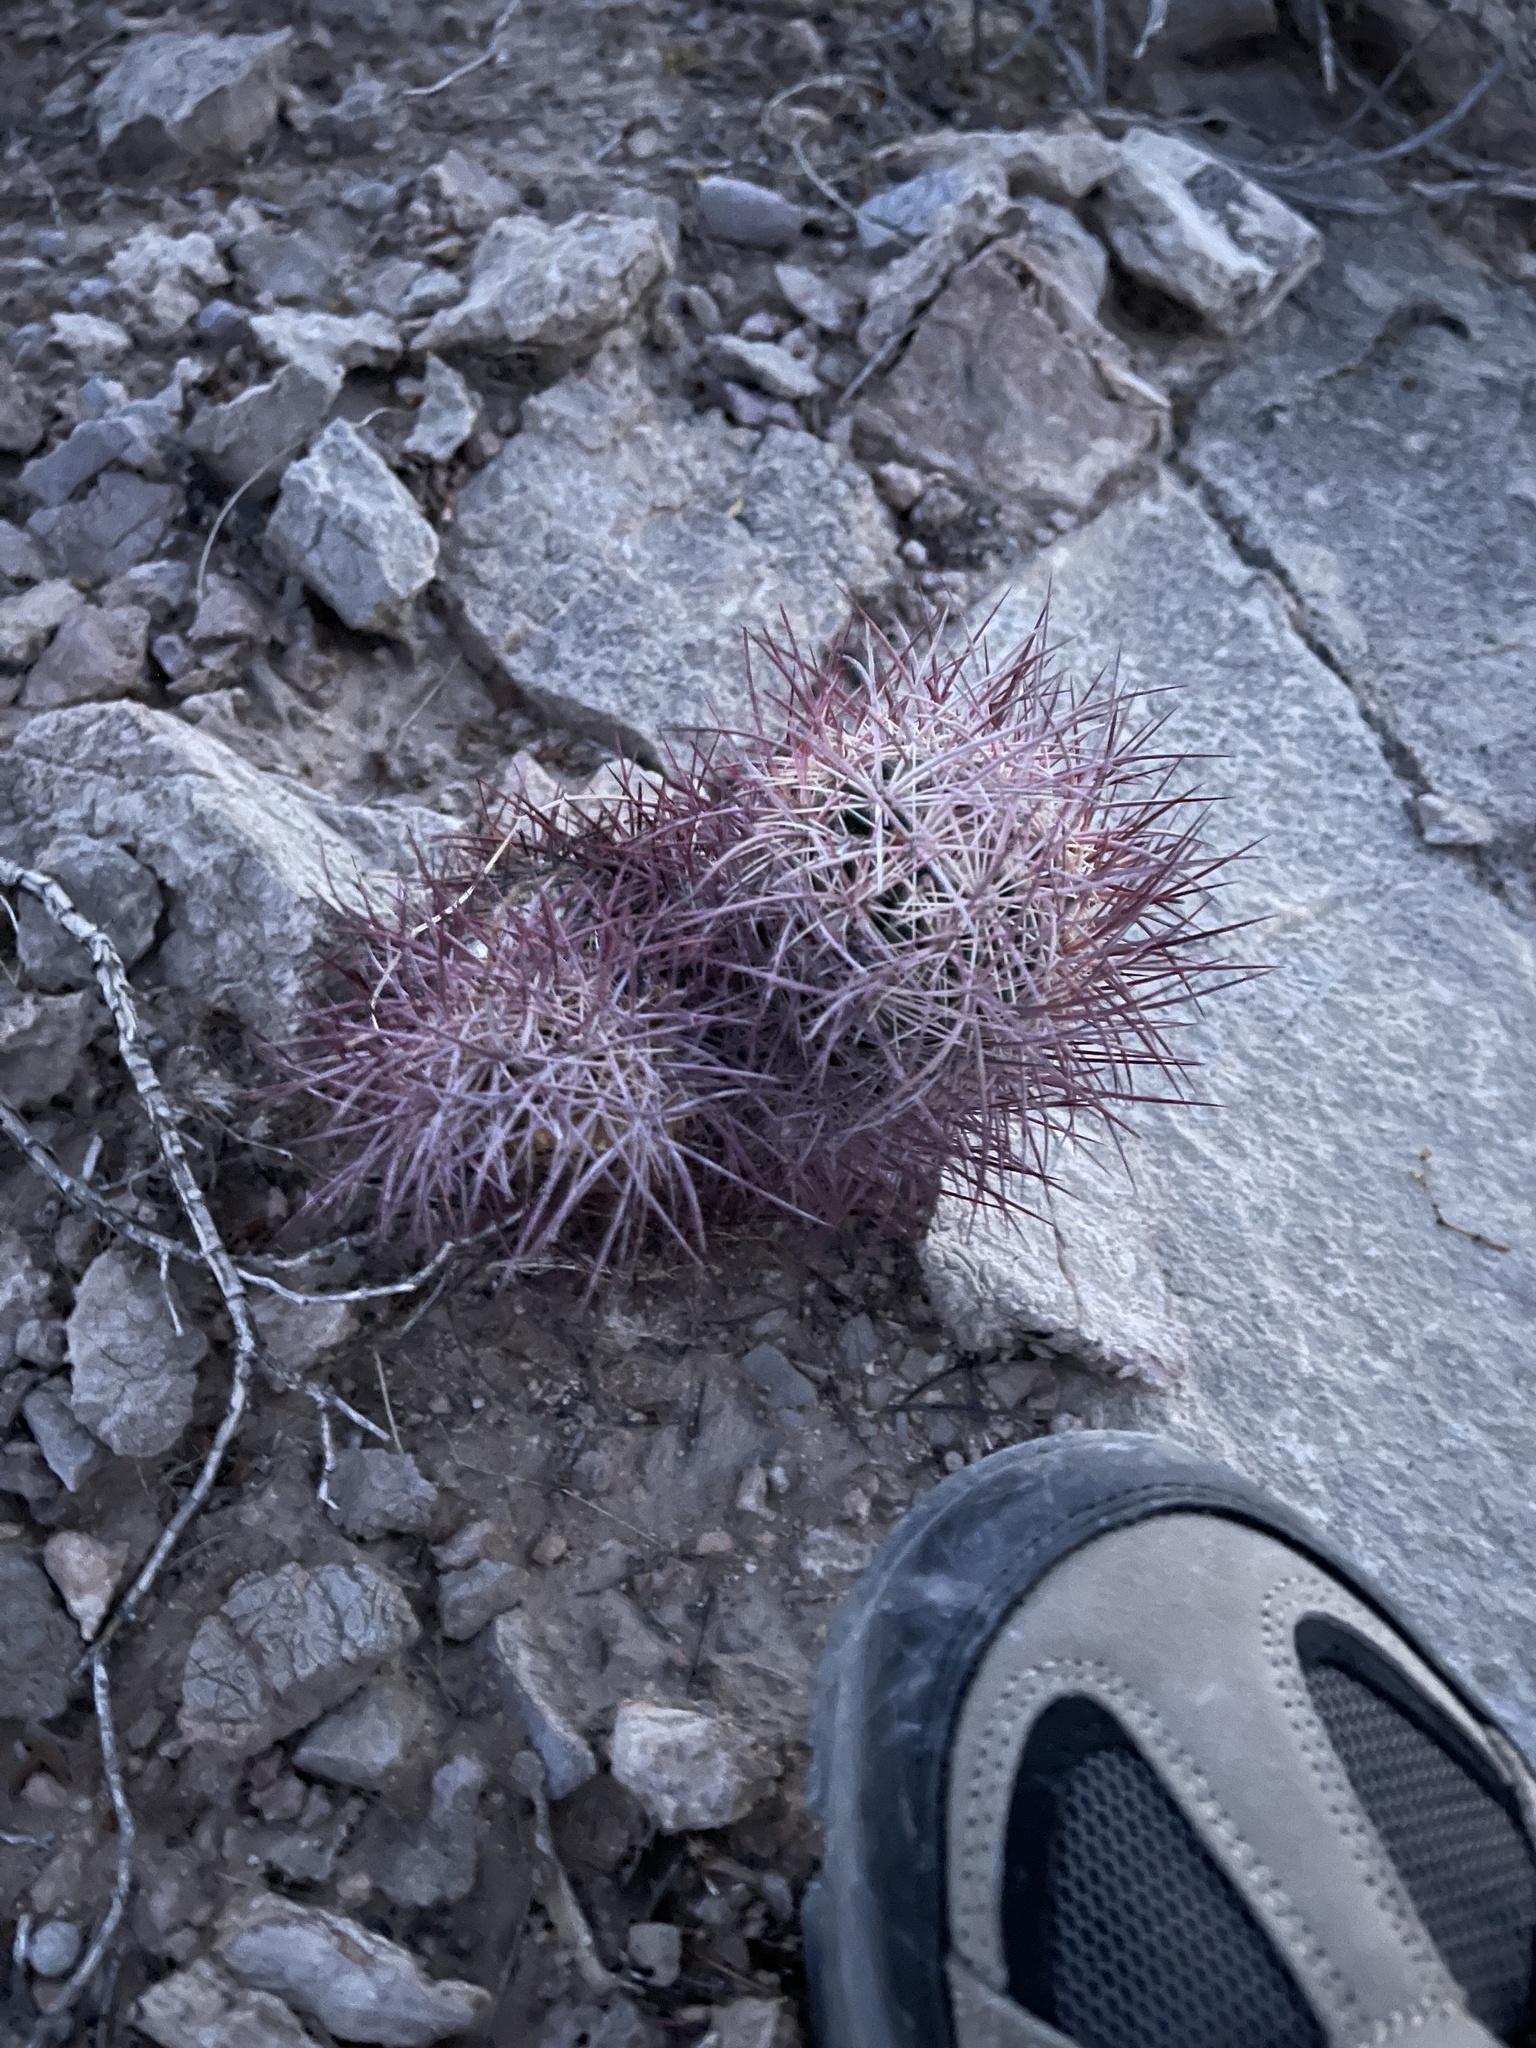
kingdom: Plantae
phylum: Tracheophyta
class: Magnoliopsida
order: Caryophyllales
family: Cactaceae
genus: Sclerocactus
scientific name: Sclerocactus johnsonii
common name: Eight-spine fishhook cactus
